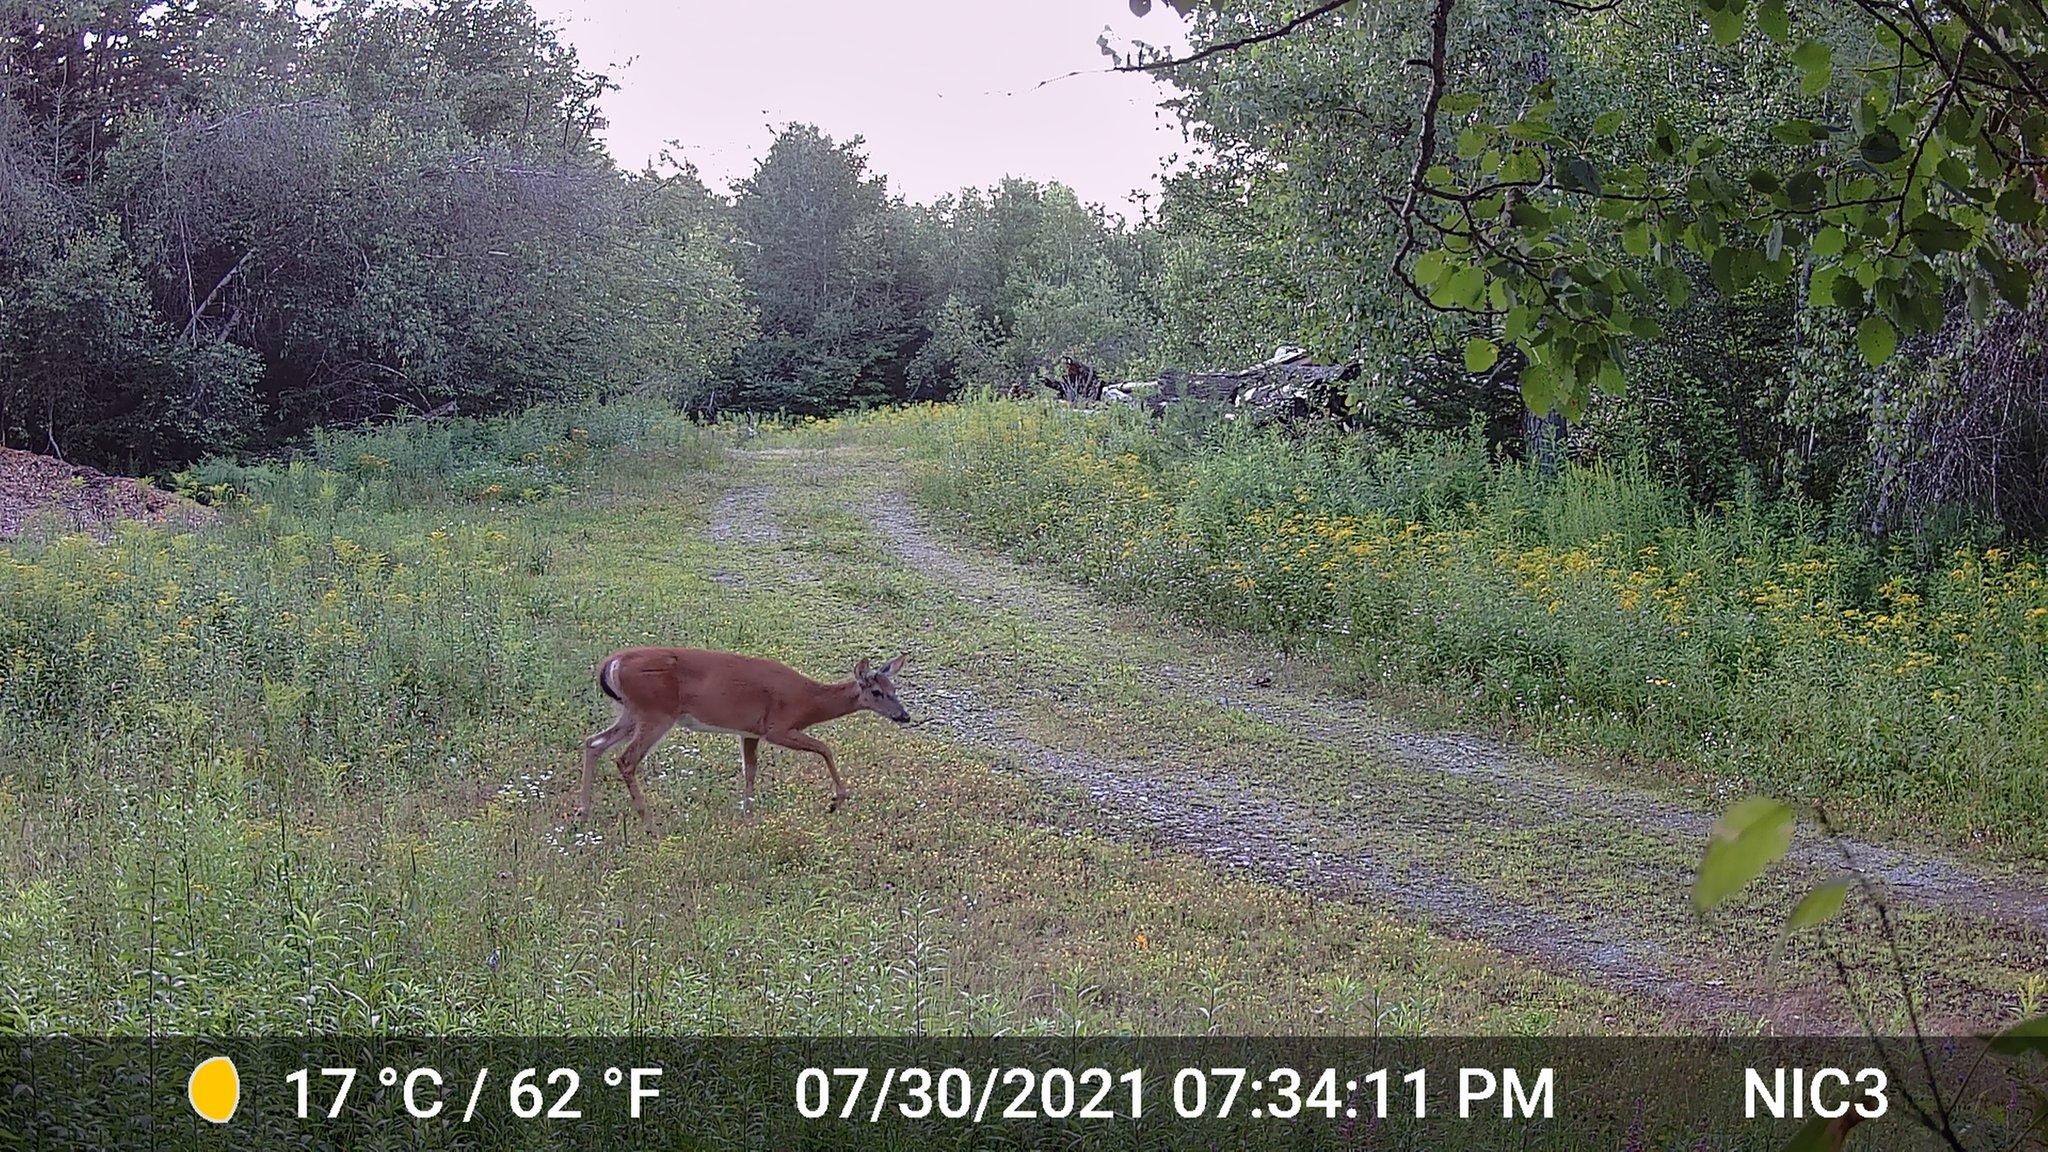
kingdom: Animalia
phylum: Chordata
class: Mammalia
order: Artiodactyla
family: Cervidae
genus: Odocoileus
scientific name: Odocoileus virginianus
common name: White-tailed deer
